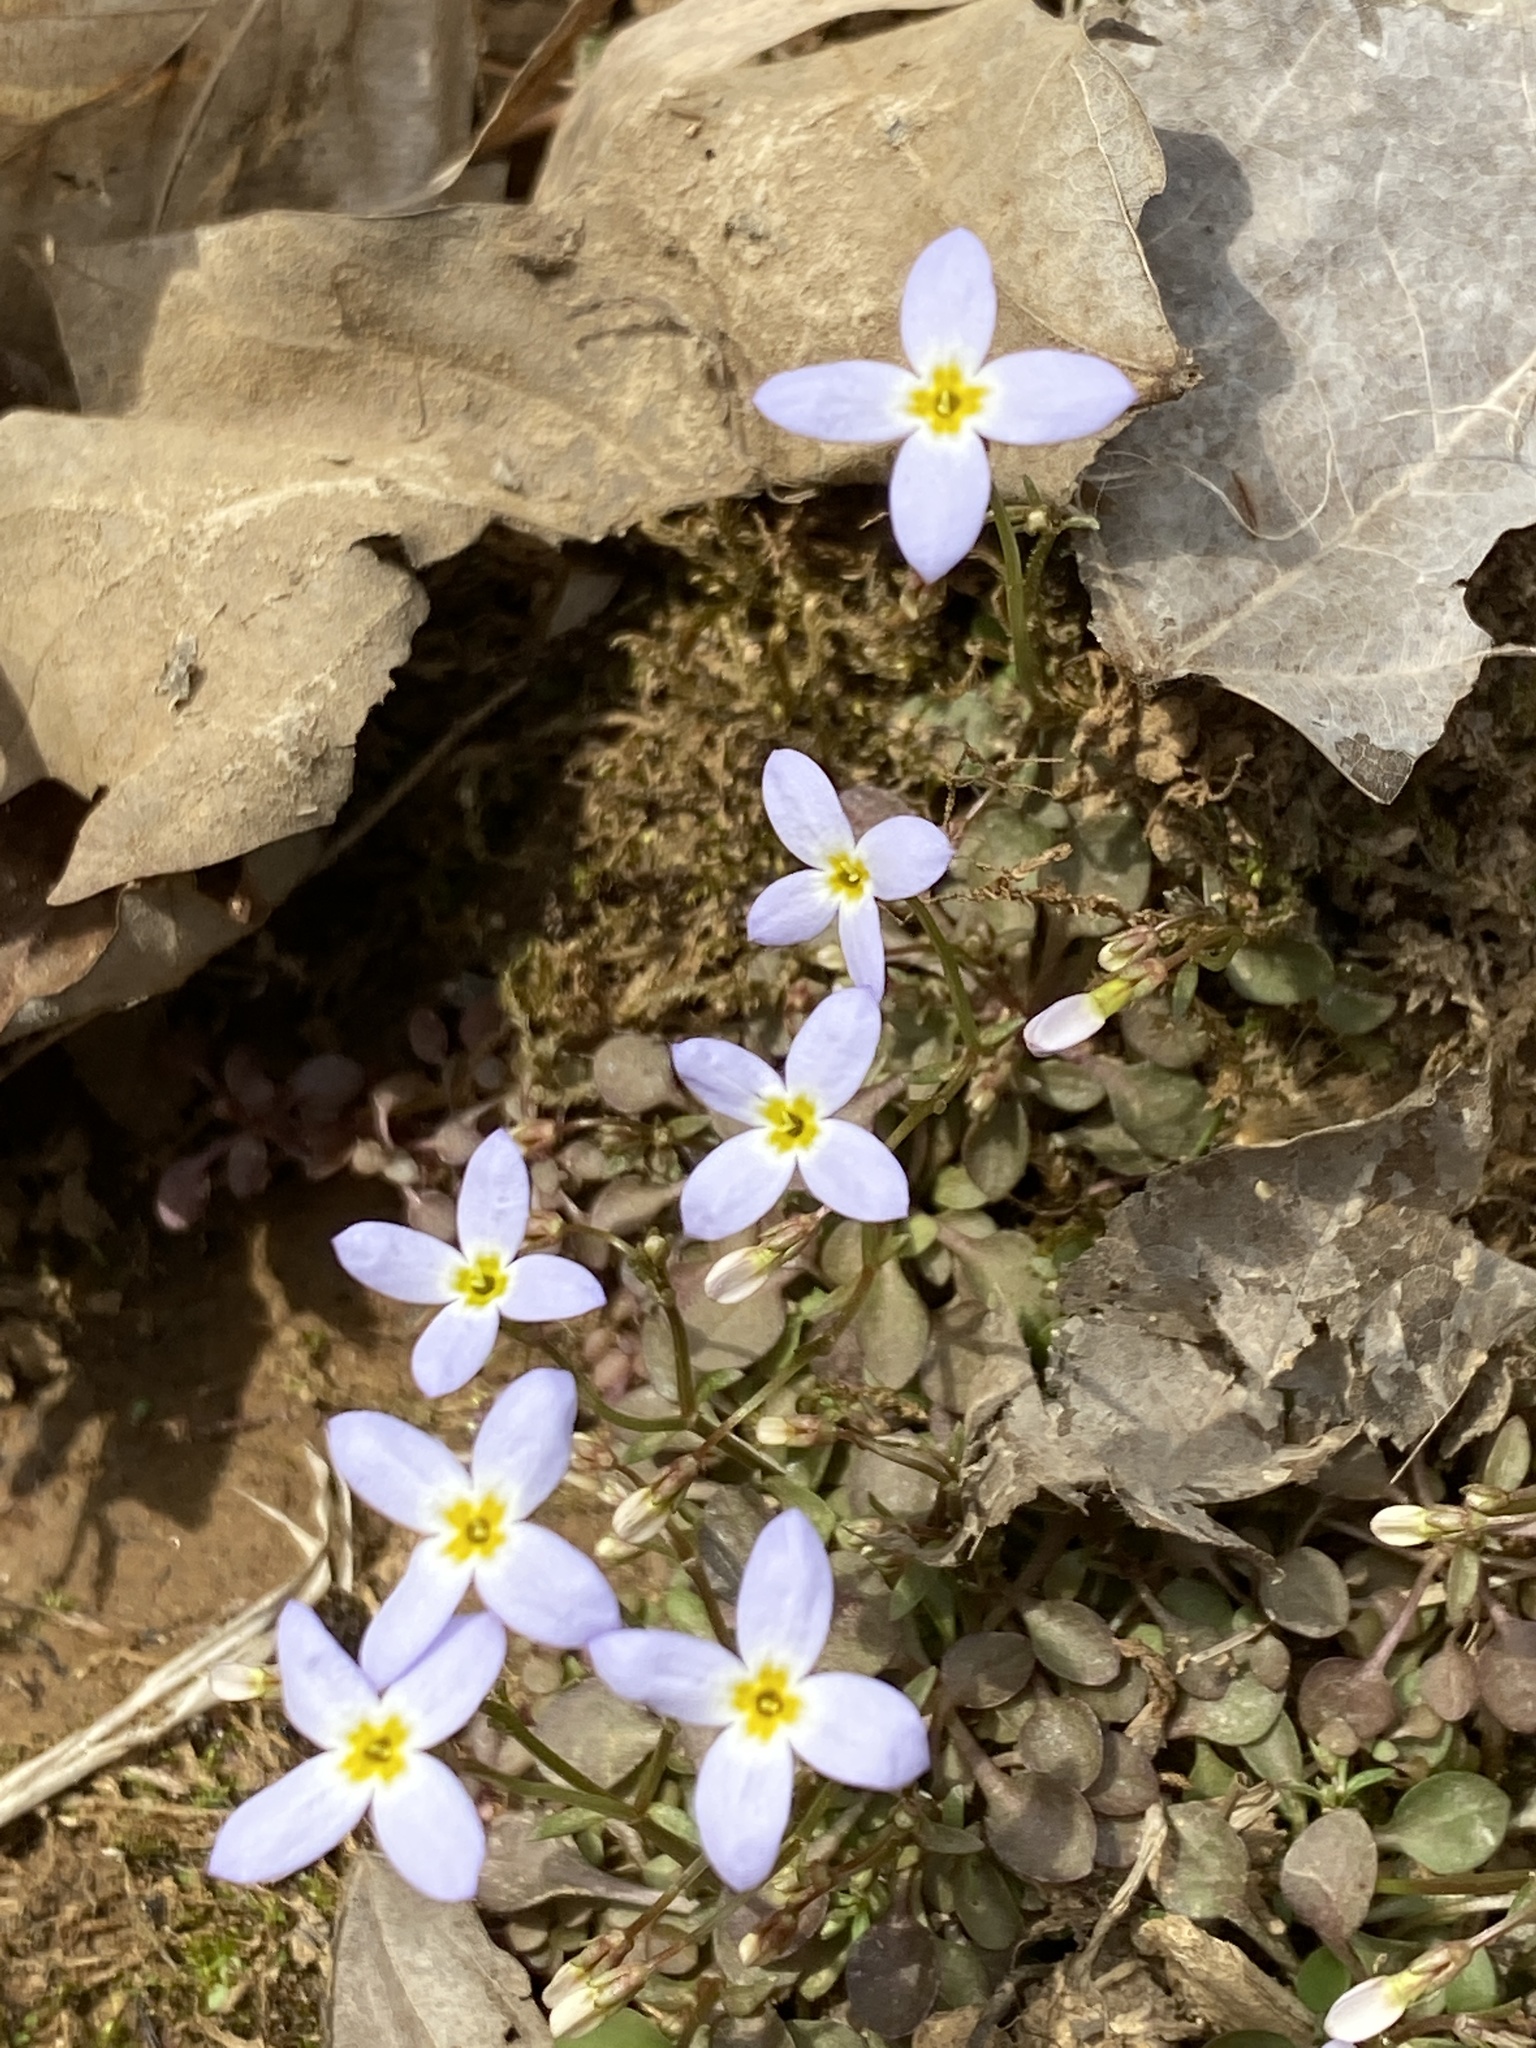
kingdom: Plantae
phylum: Tracheophyta
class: Magnoliopsida
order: Gentianales
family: Rubiaceae
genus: Houstonia
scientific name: Houstonia caerulea
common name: Bluets
